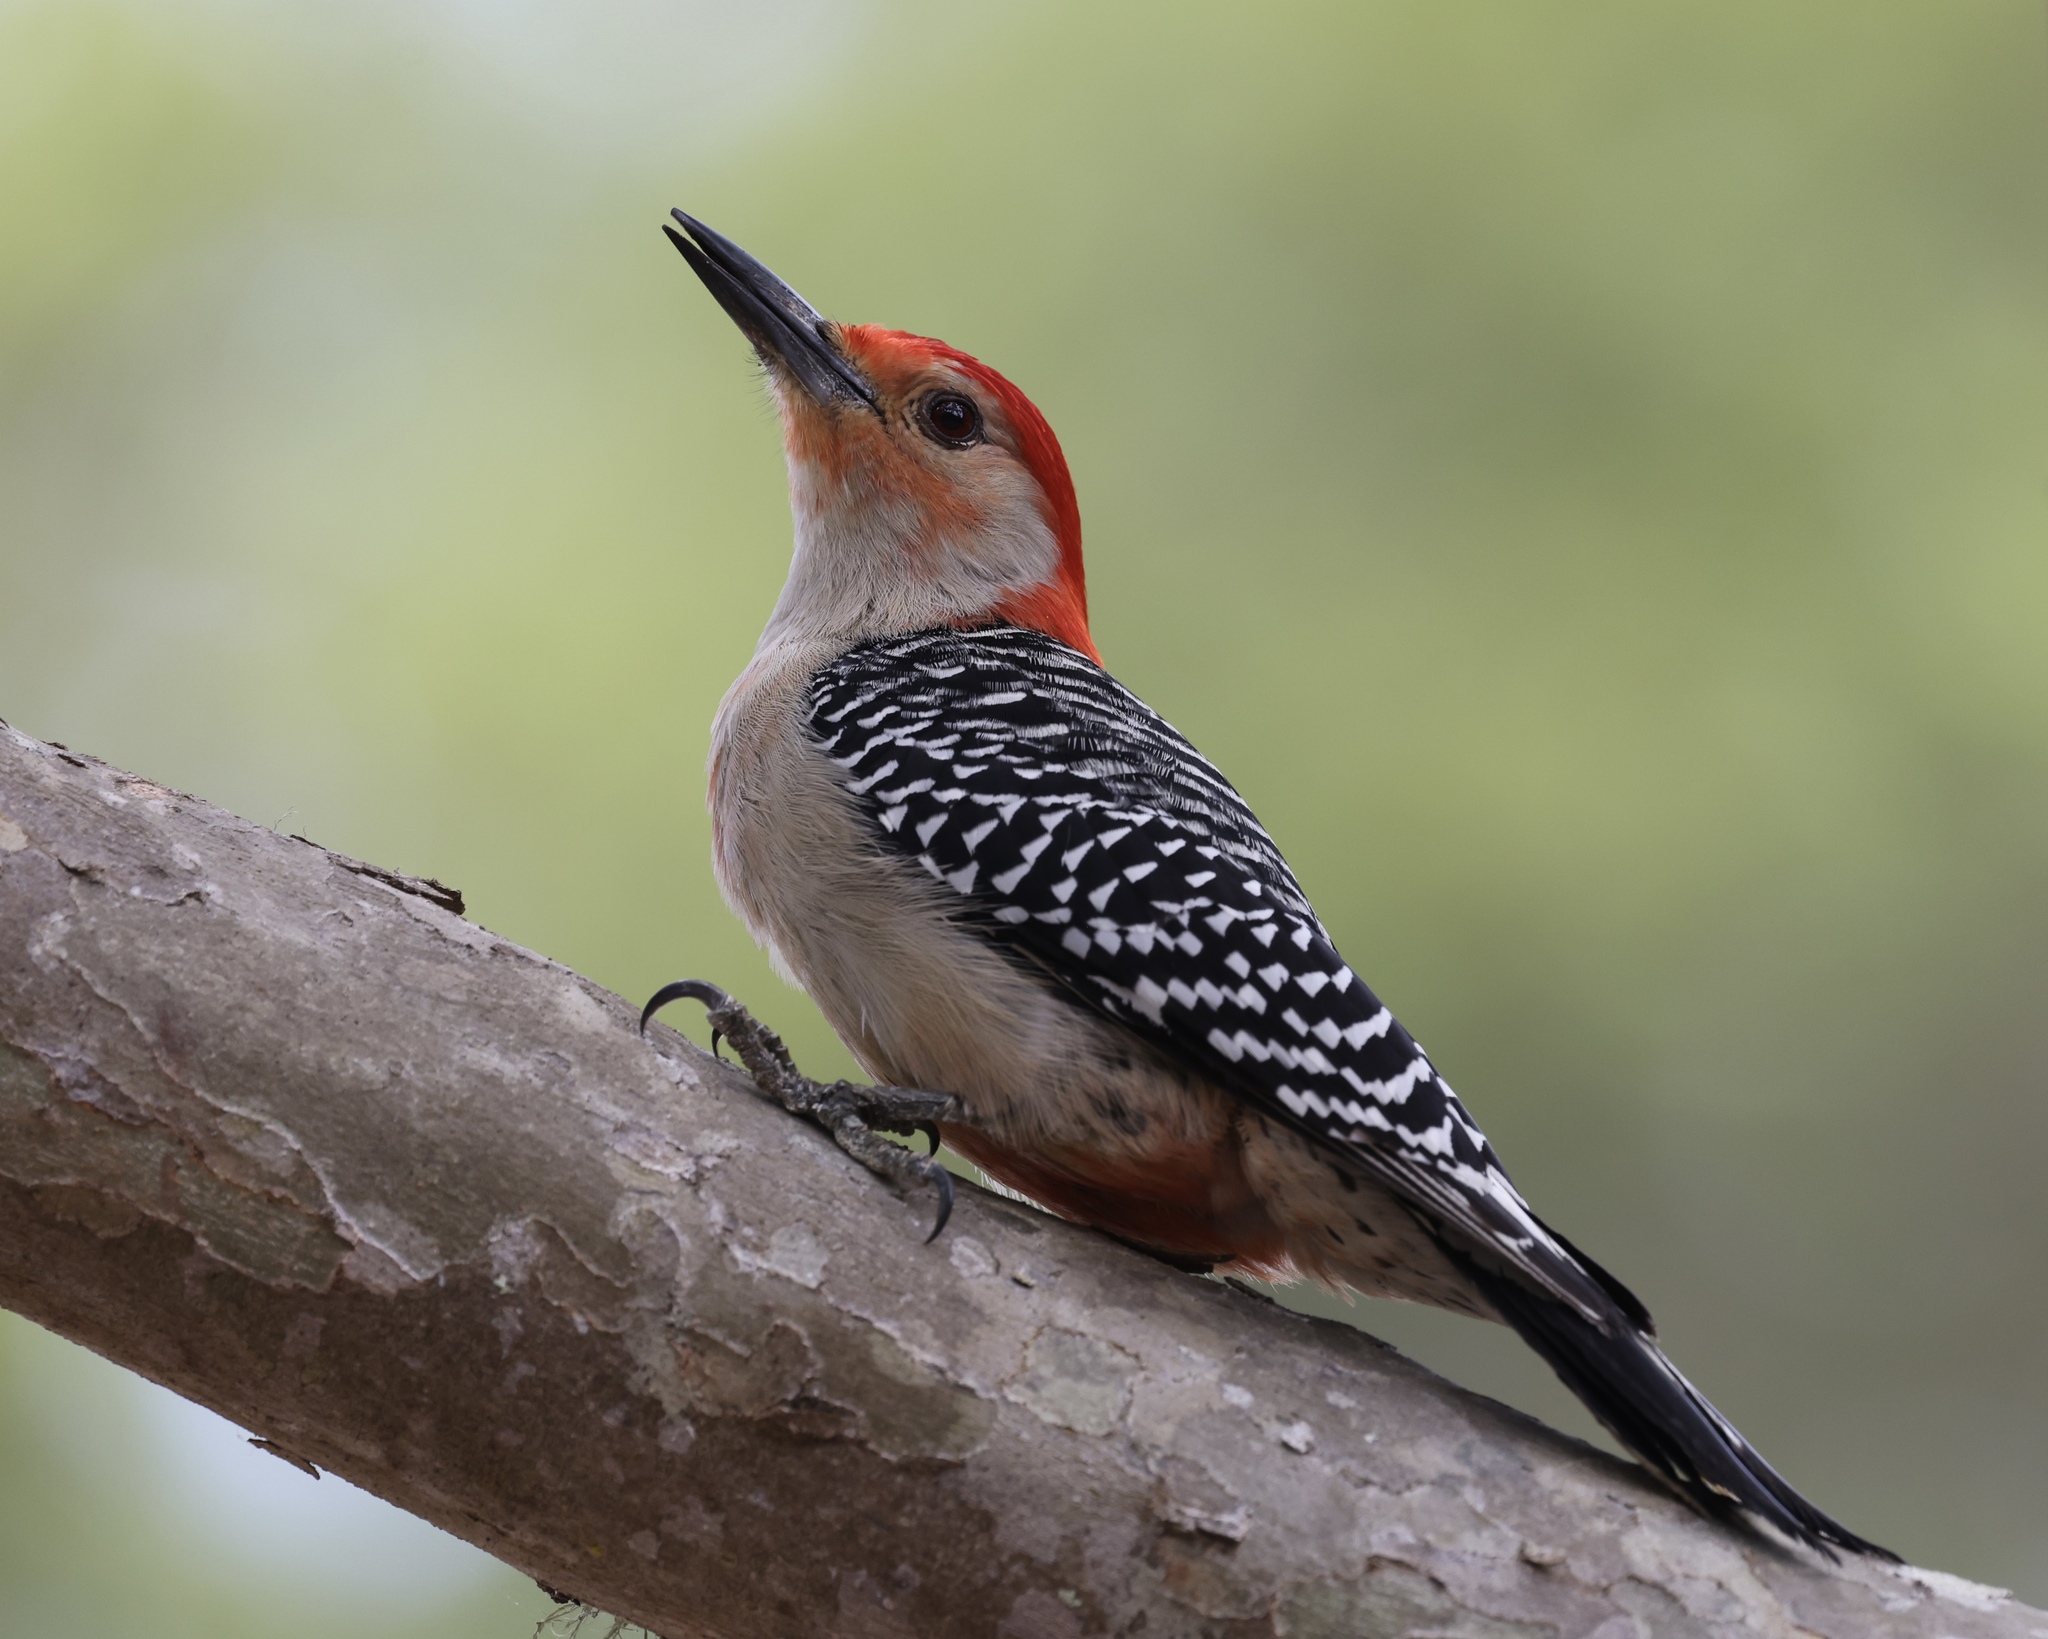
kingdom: Animalia
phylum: Chordata
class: Aves
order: Piciformes
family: Picidae
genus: Melanerpes
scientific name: Melanerpes carolinus
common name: Red-bellied woodpecker
